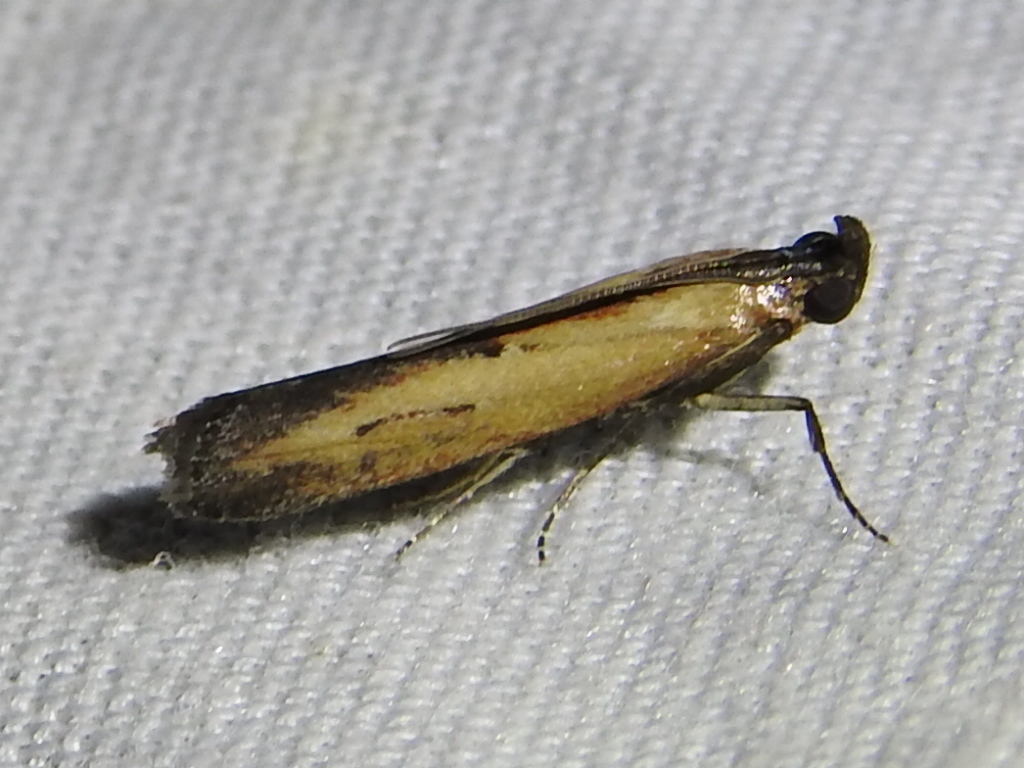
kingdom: Animalia
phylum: Arthropoda
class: Insecta
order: Lepidoptera
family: Pyralidae
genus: Elasmopalpus
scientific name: Elasmopalpus lignosella
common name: Lesser cornstalk borer
